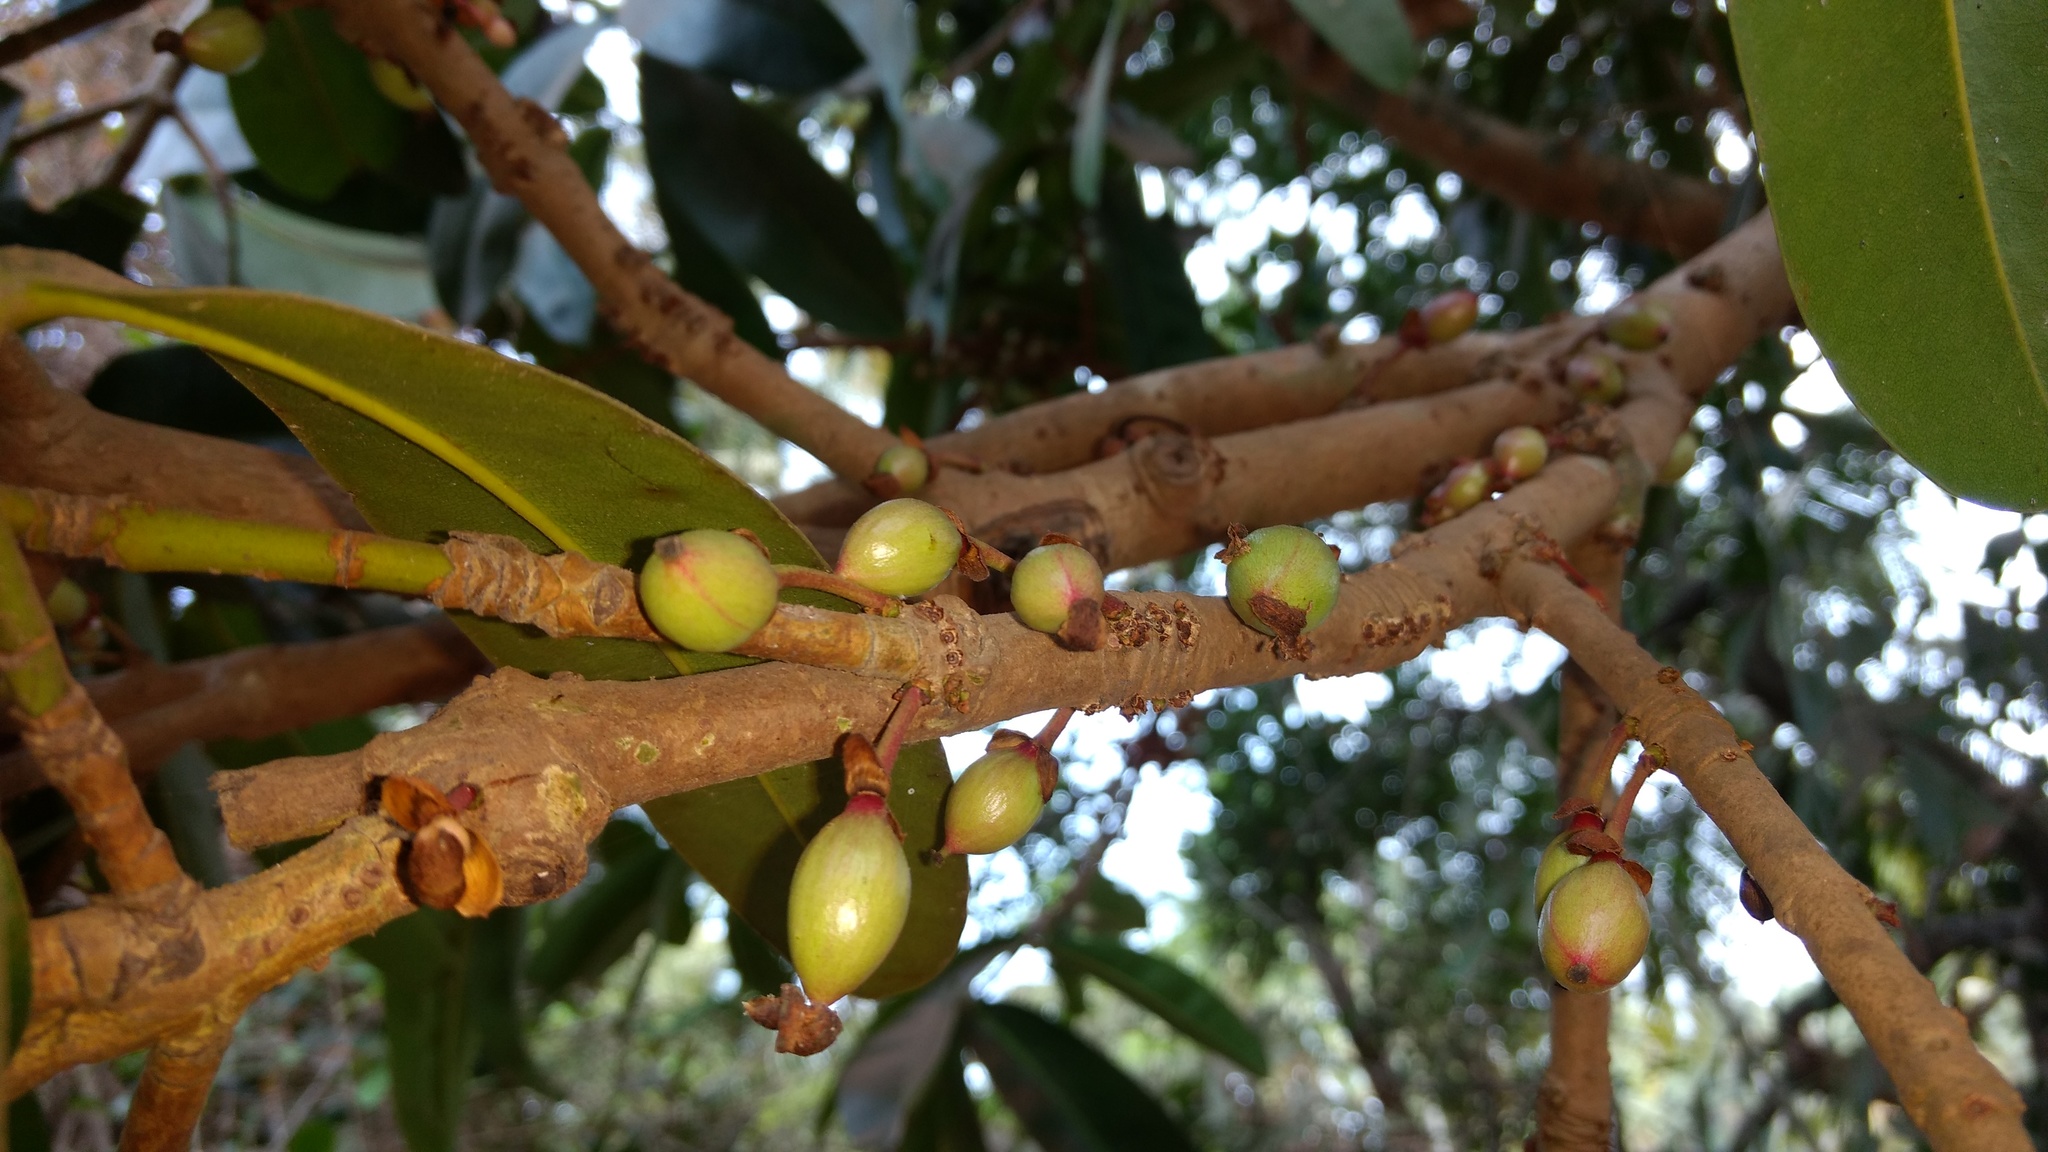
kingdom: Plantae
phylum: Tracheophyta
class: Magnoliopsida
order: Malpighiales
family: Calophyllaceae
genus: Mammea
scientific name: Mammea suriga
